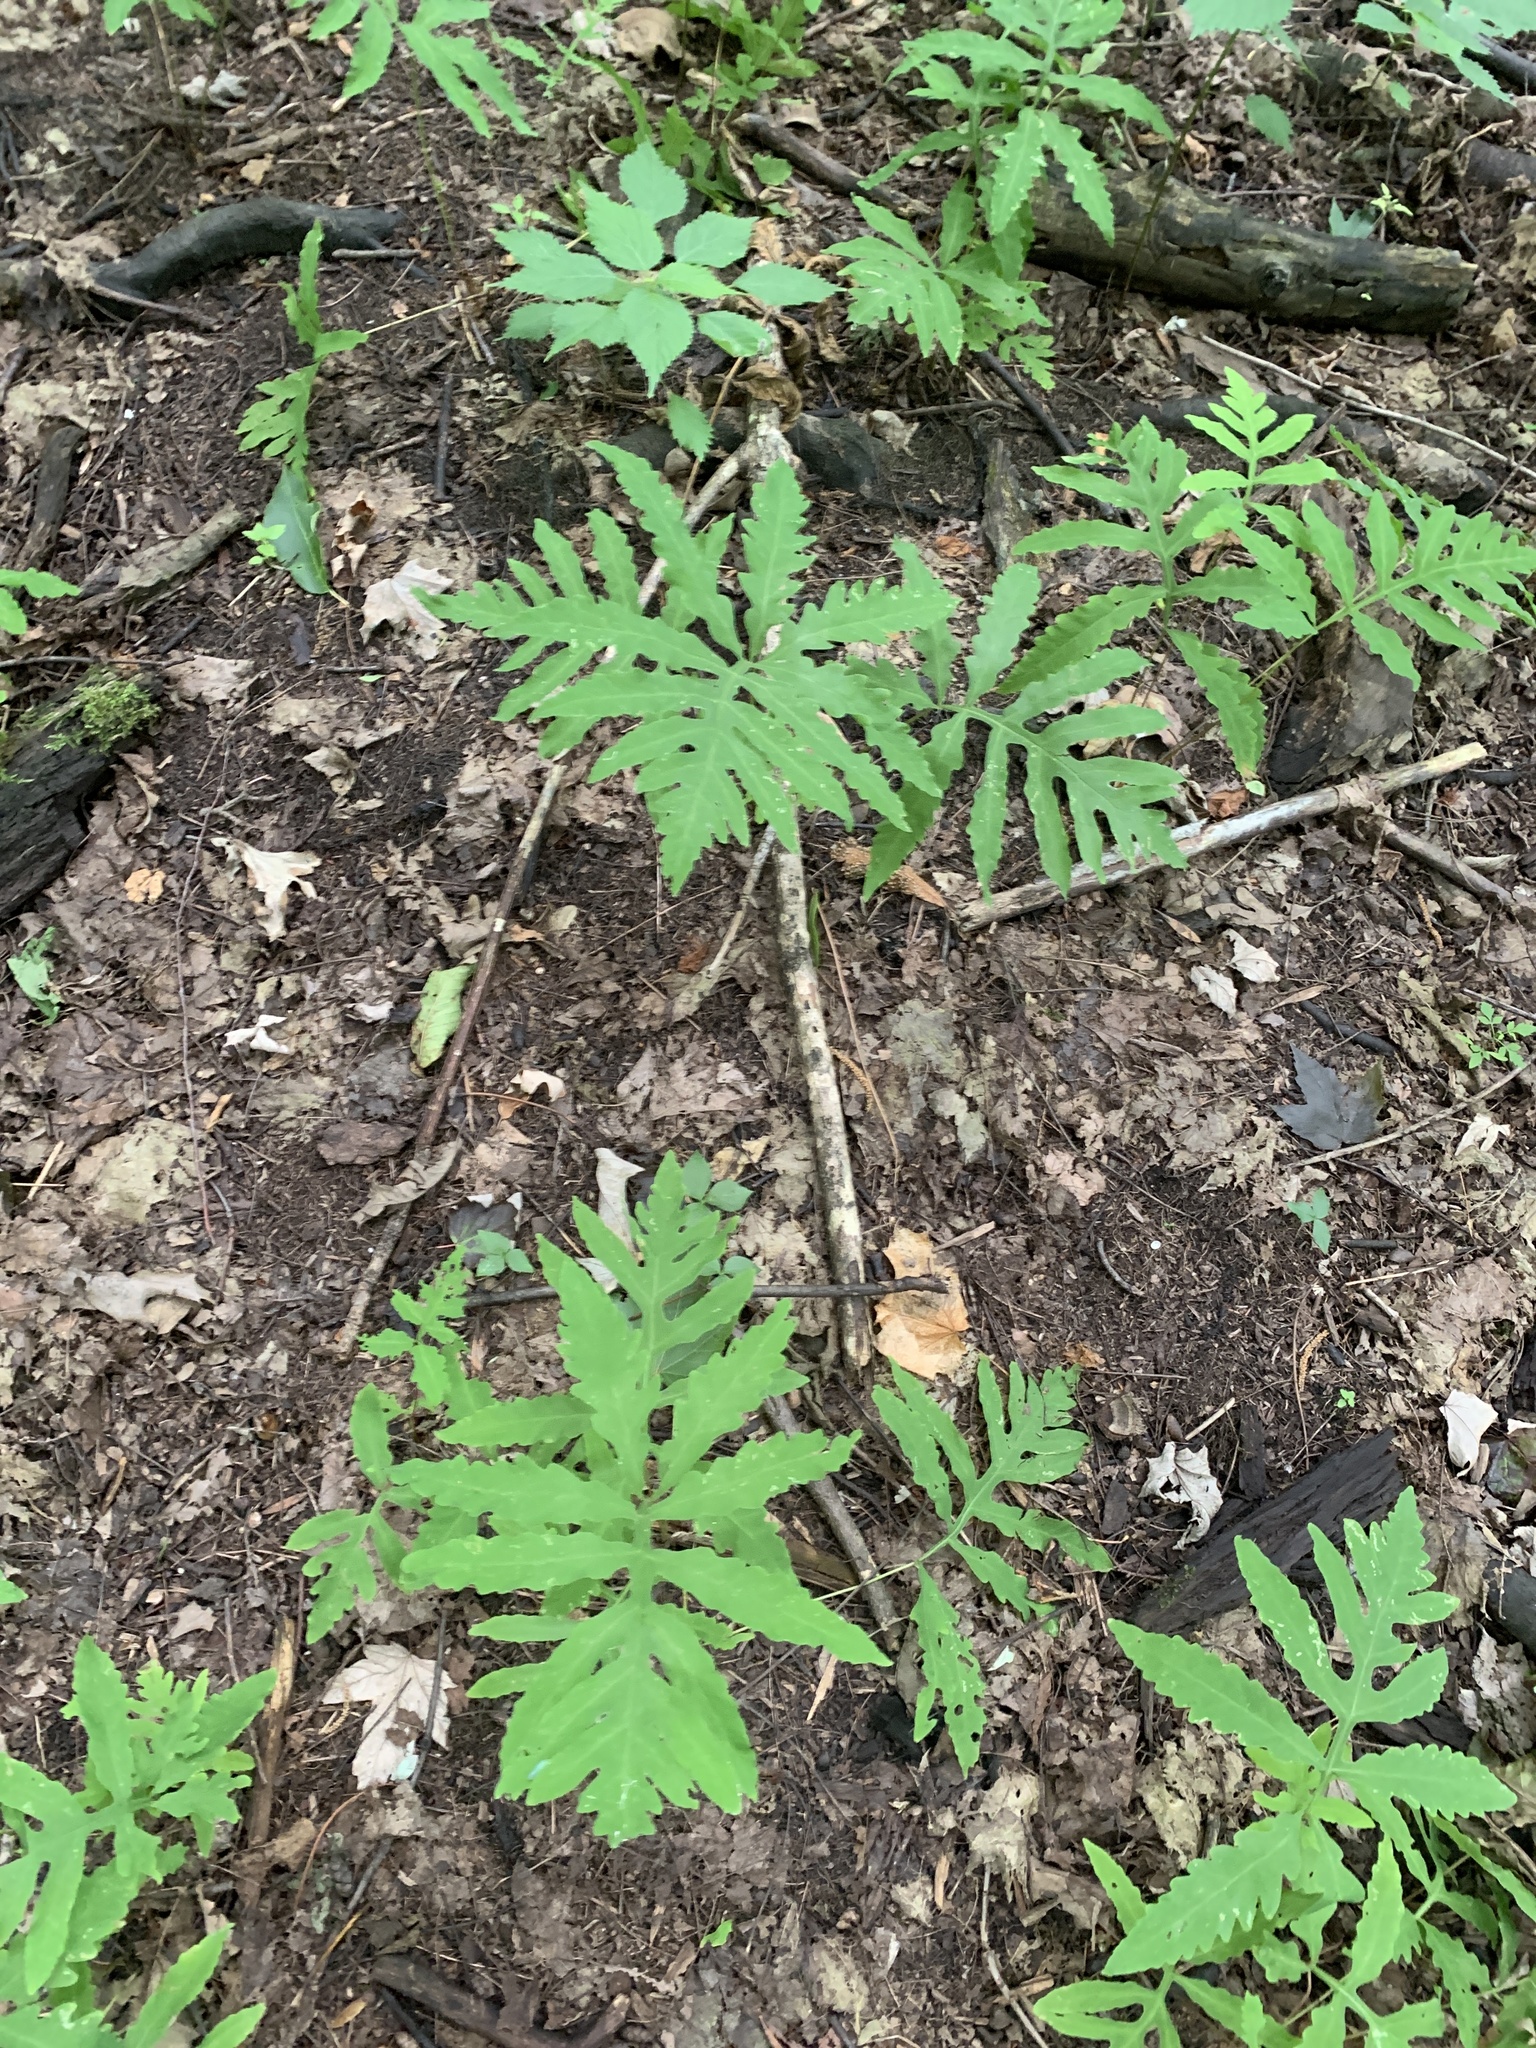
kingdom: Plantae
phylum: Tracheophyta
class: Polypodiopsida
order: Polypodiales
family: Onocleaceae
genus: Onoclea
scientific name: Onoclea sensibilis
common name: Sensitive fern
